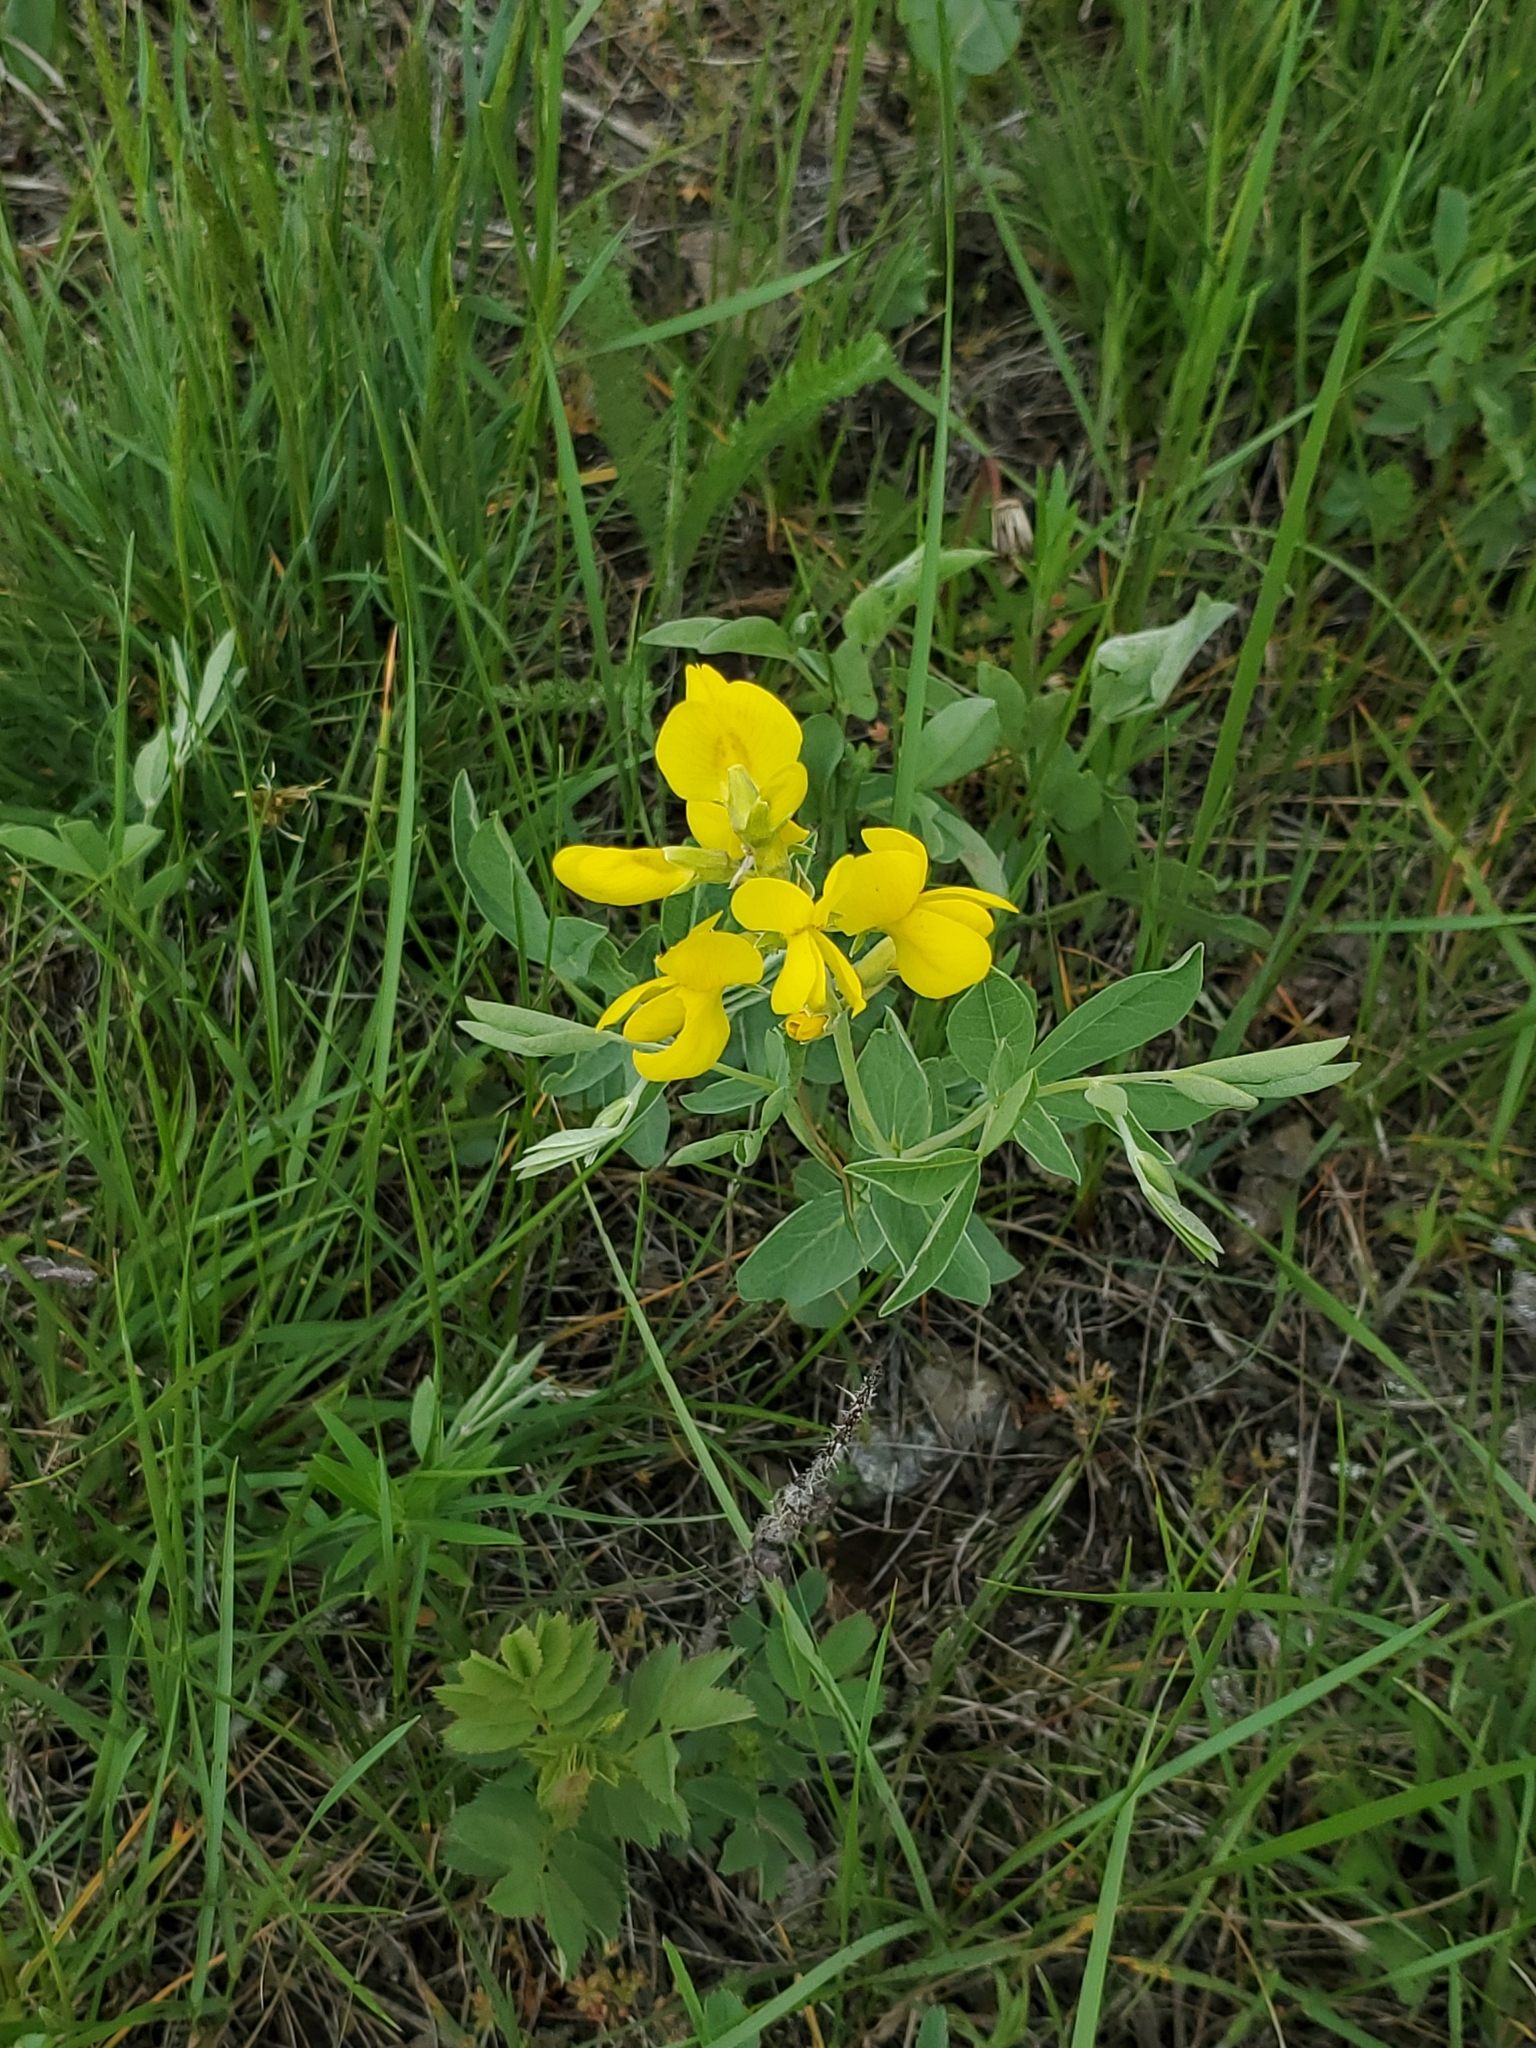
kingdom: Plantae
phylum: Tracheophyta
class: Magnoliopsida
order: Fabales
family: Fabaceae
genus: Thermopsis
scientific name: Thermopsis rhombifolia
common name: Circle-pod-pea
